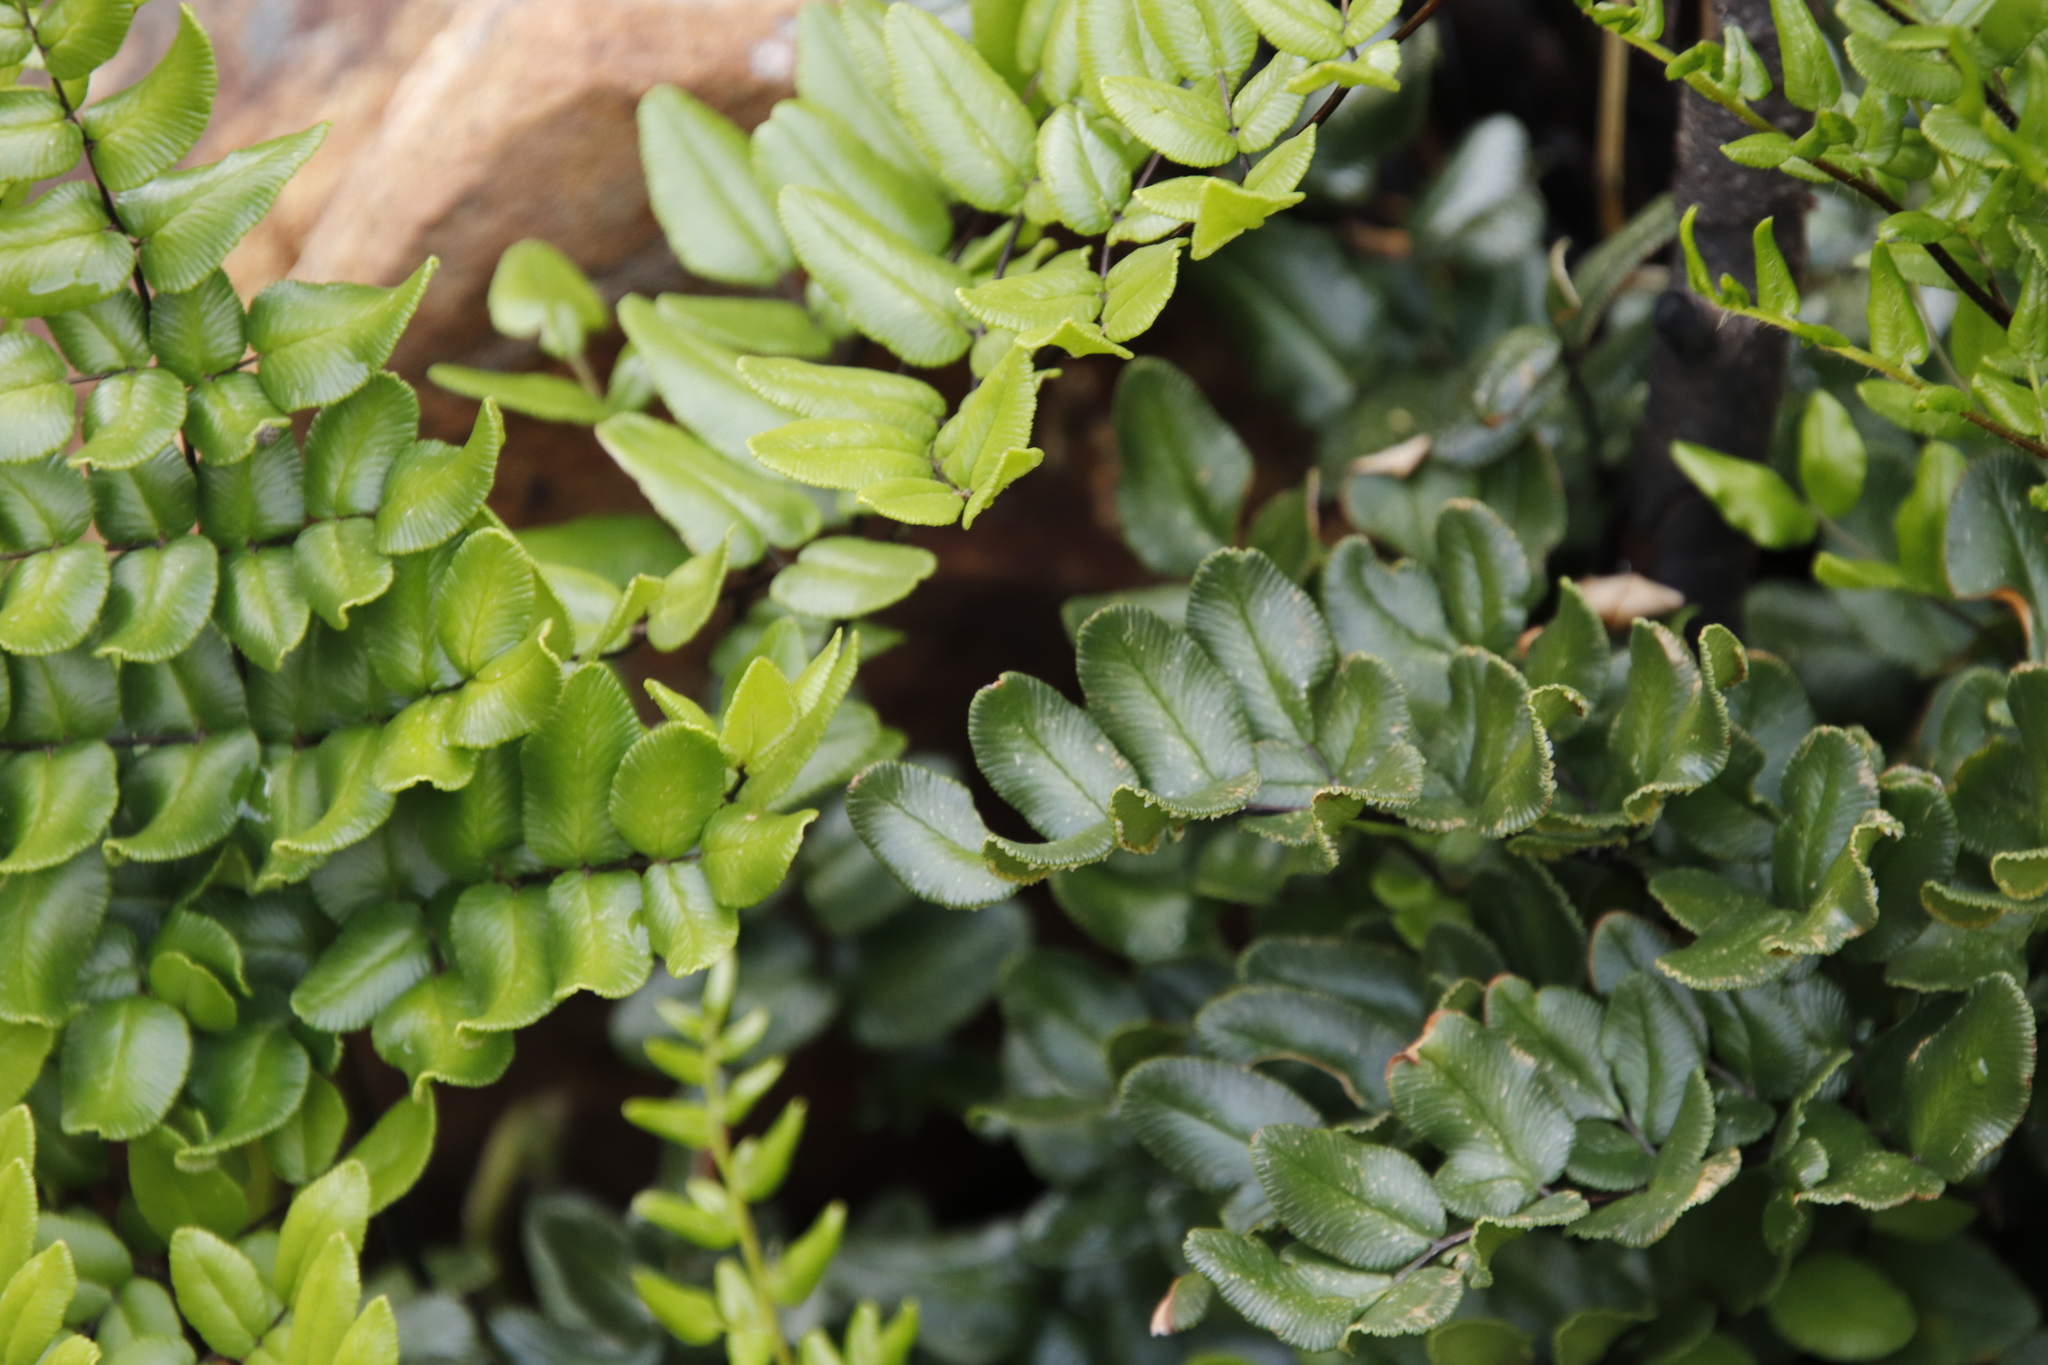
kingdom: Plantae
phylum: Tracheophyta
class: Polypodiopsida
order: Polypodiales
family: Pteridaceae
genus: Pellaea
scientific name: Pellaea pteroides
